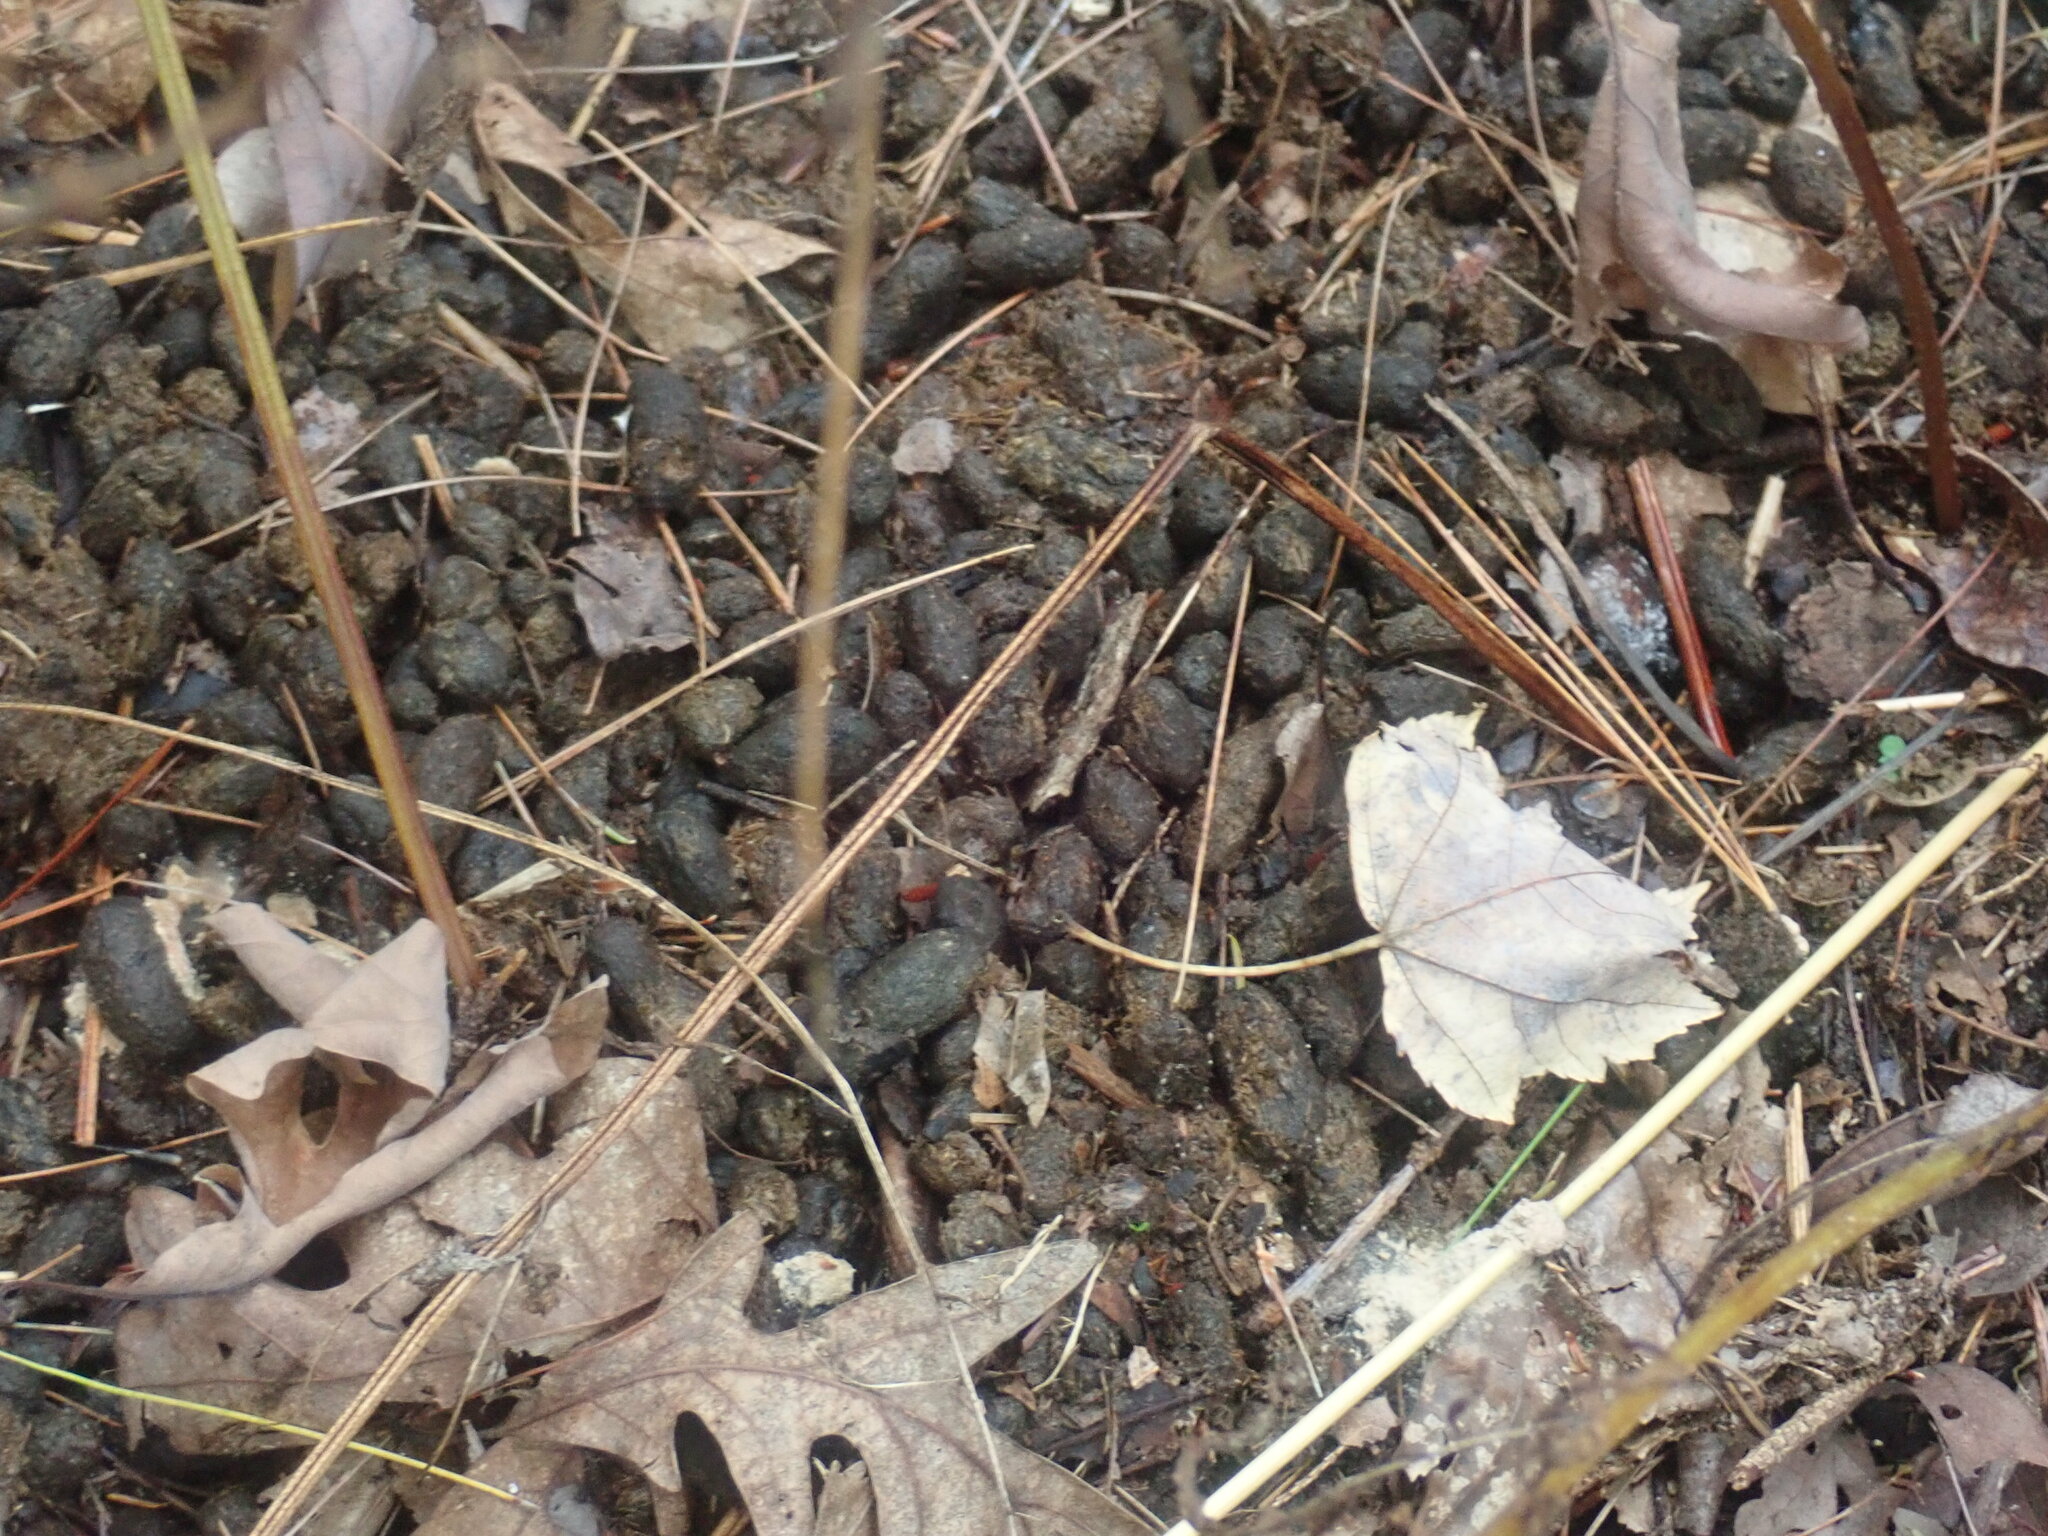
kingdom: Animalia
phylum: Chordata
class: Mammalia
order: Rodentia
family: Erethizontidae
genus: Erethizon
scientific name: Erethizon dorsatus
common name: North american porcupine
